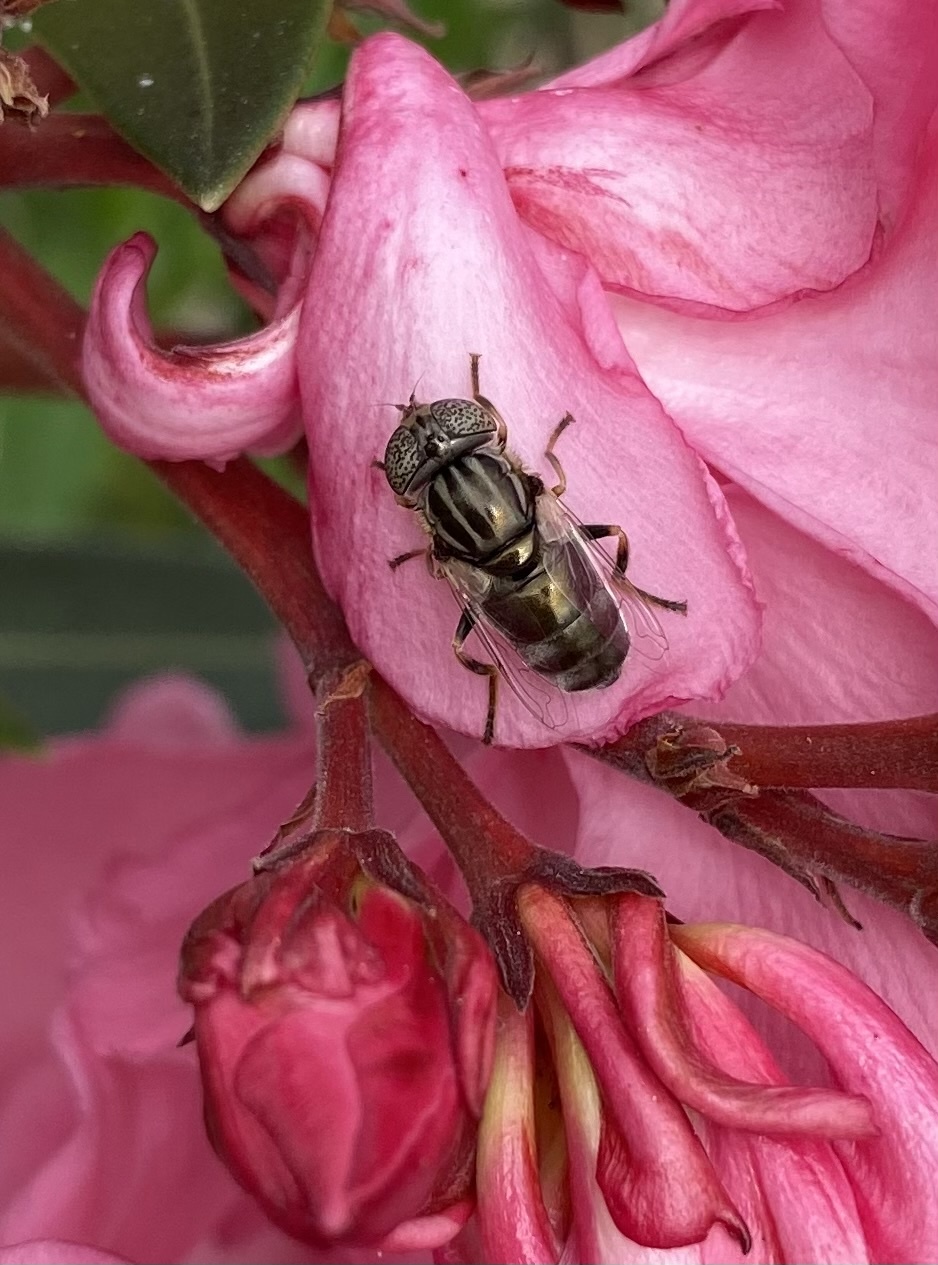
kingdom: Animalia
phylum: Arthropoda
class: Insecta
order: Diptera
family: Syrphidae
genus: Eristalinus
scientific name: Eristalinus aeneus
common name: Syrphid fly
